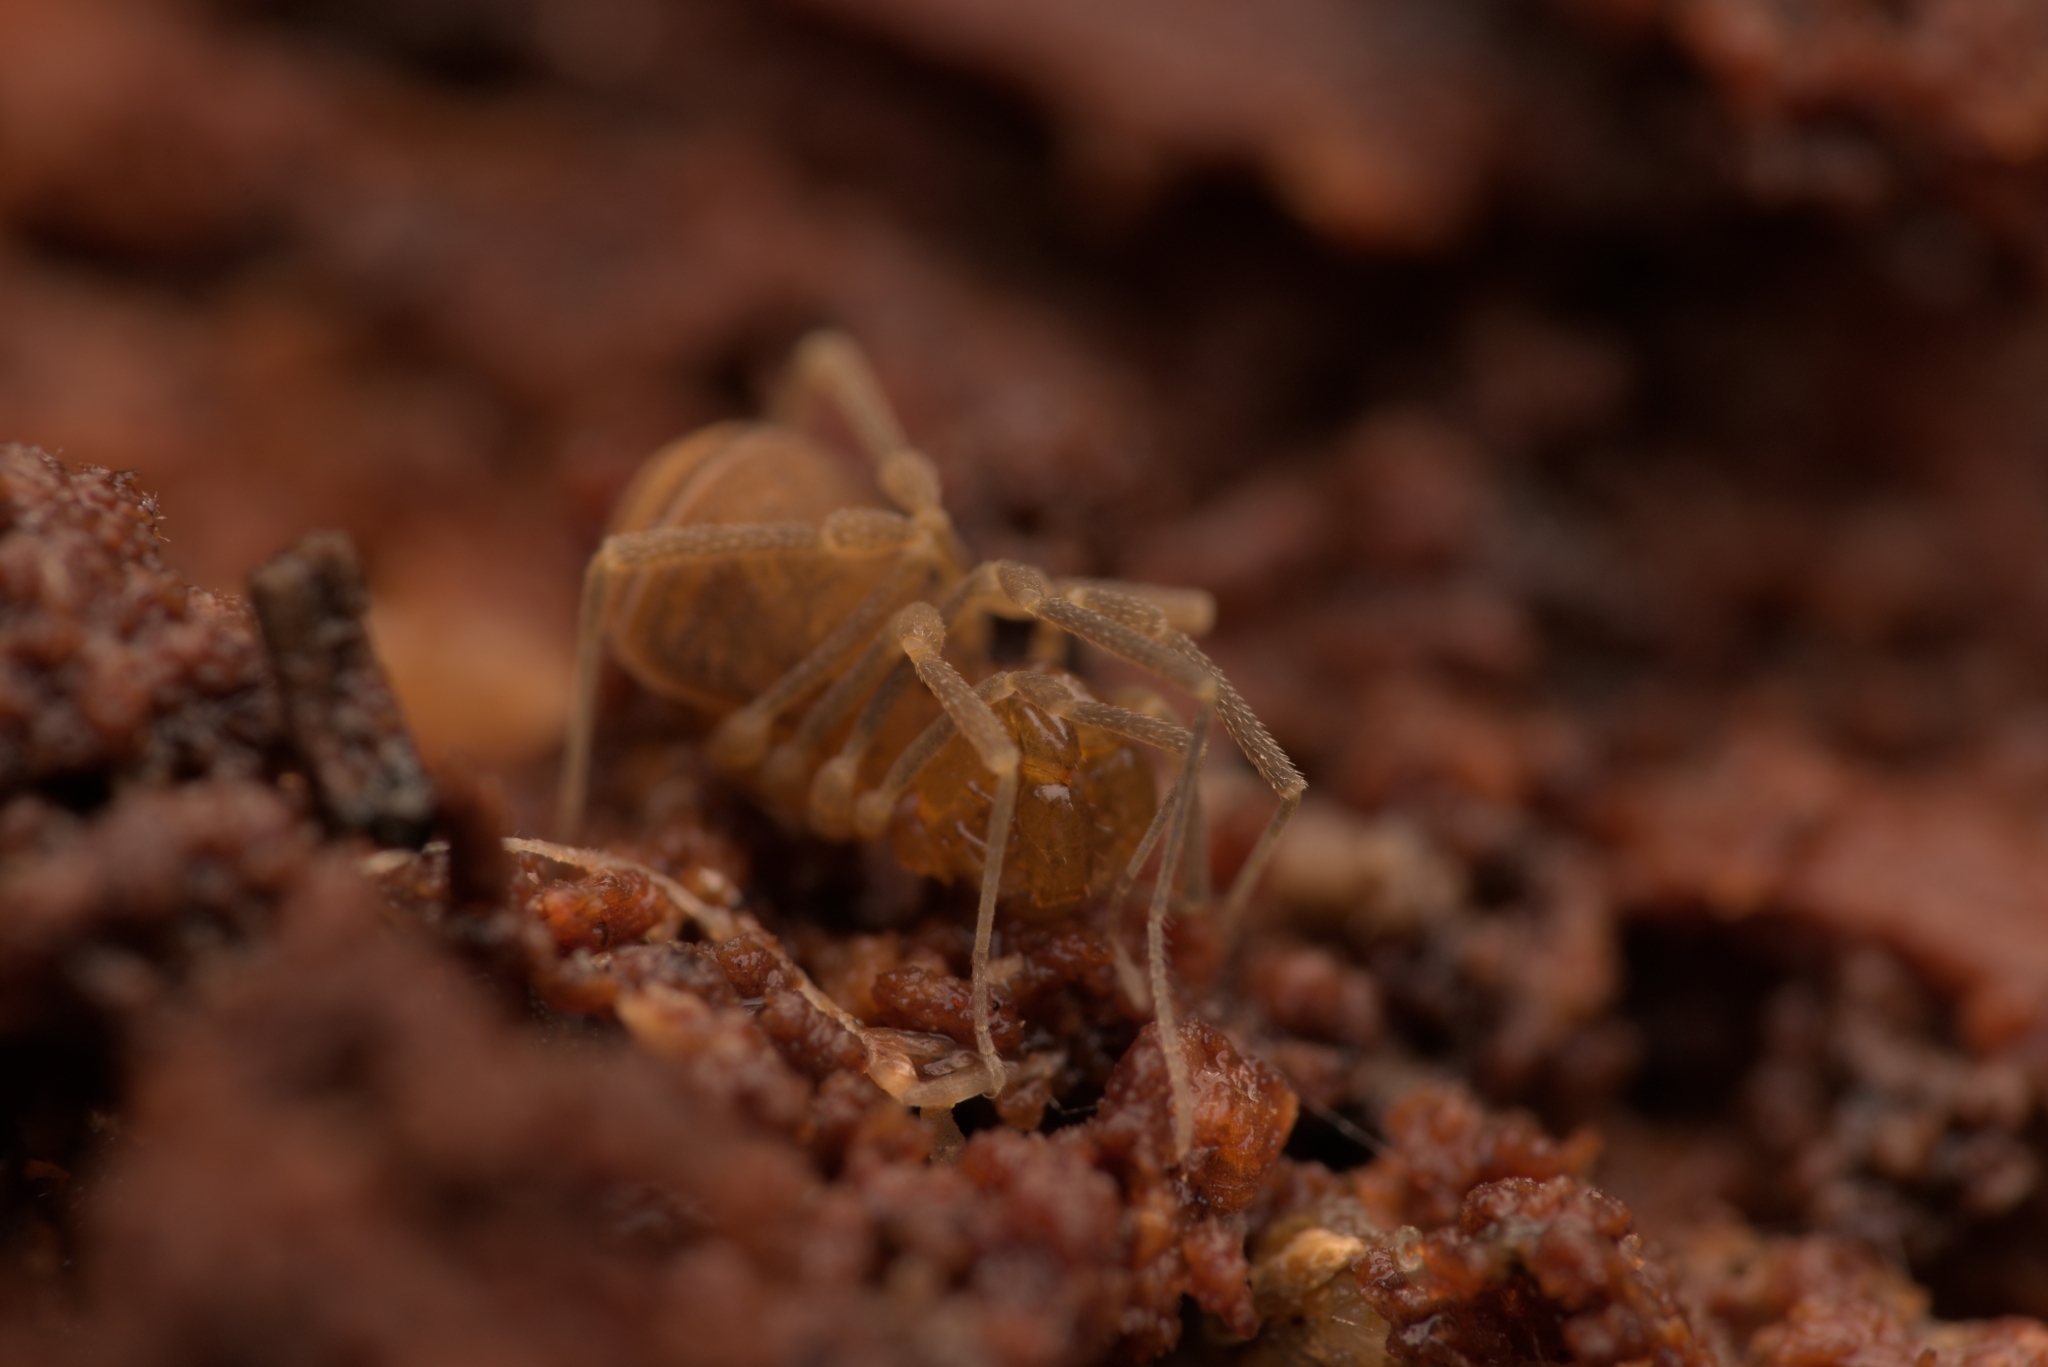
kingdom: Animalia
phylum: Arthropoda
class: Arachnida
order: Opiliones
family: Cladonychiidae
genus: Holoscotolemon
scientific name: Holoscotolemon querilhaci
